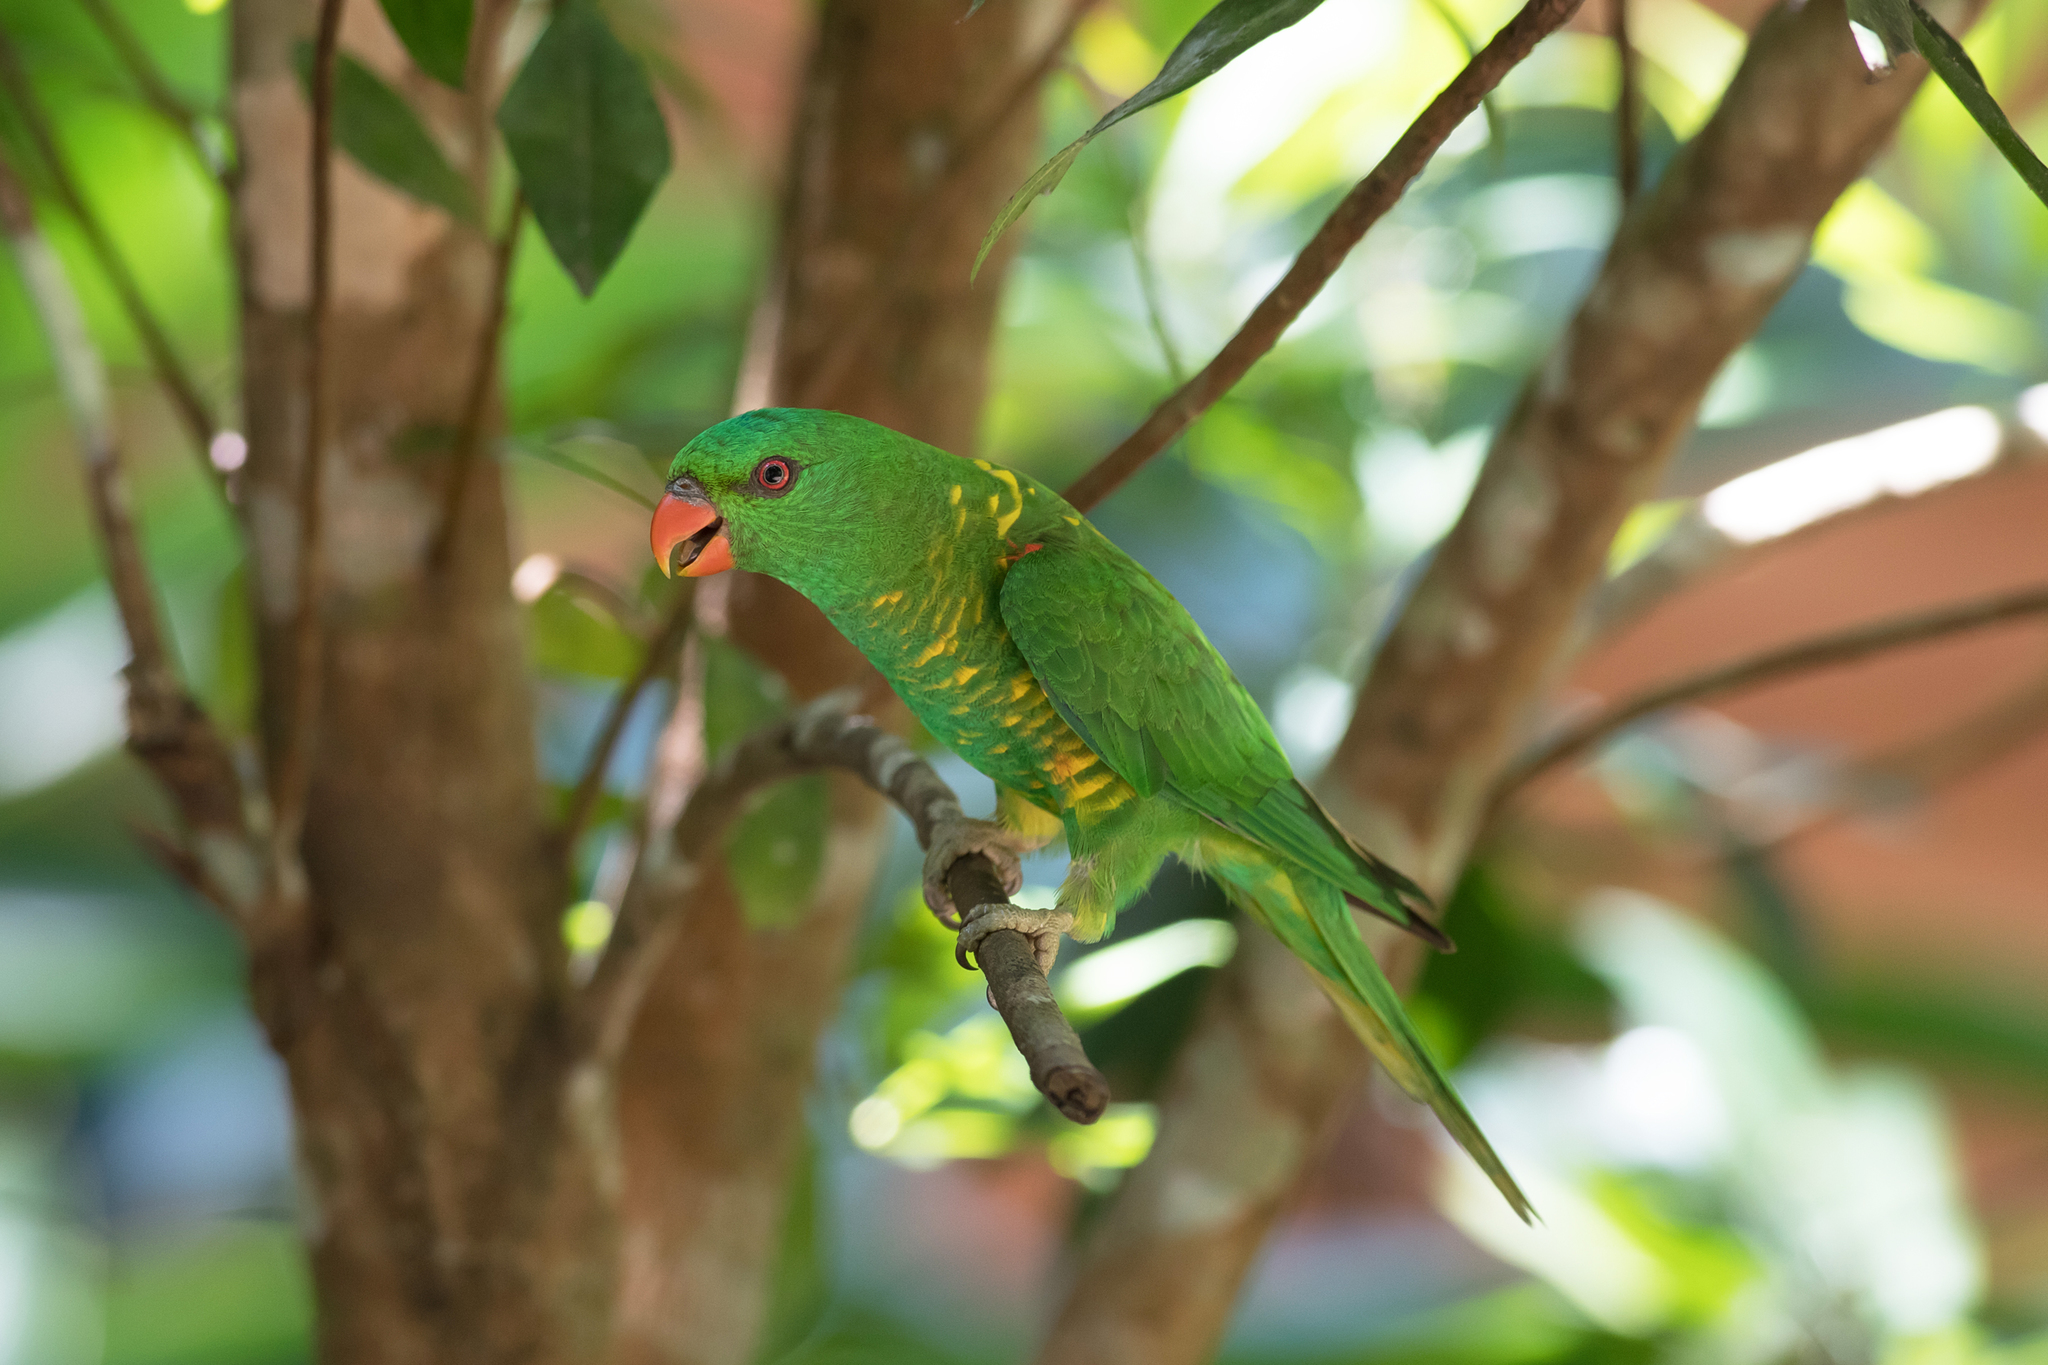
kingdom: Animalia
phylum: Chordata
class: Aves
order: Psittaciformes
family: Psittacidae
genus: Trichoglossus
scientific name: Trichoglossus chlorolepidotus
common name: Scaly-breasted lorikeet
